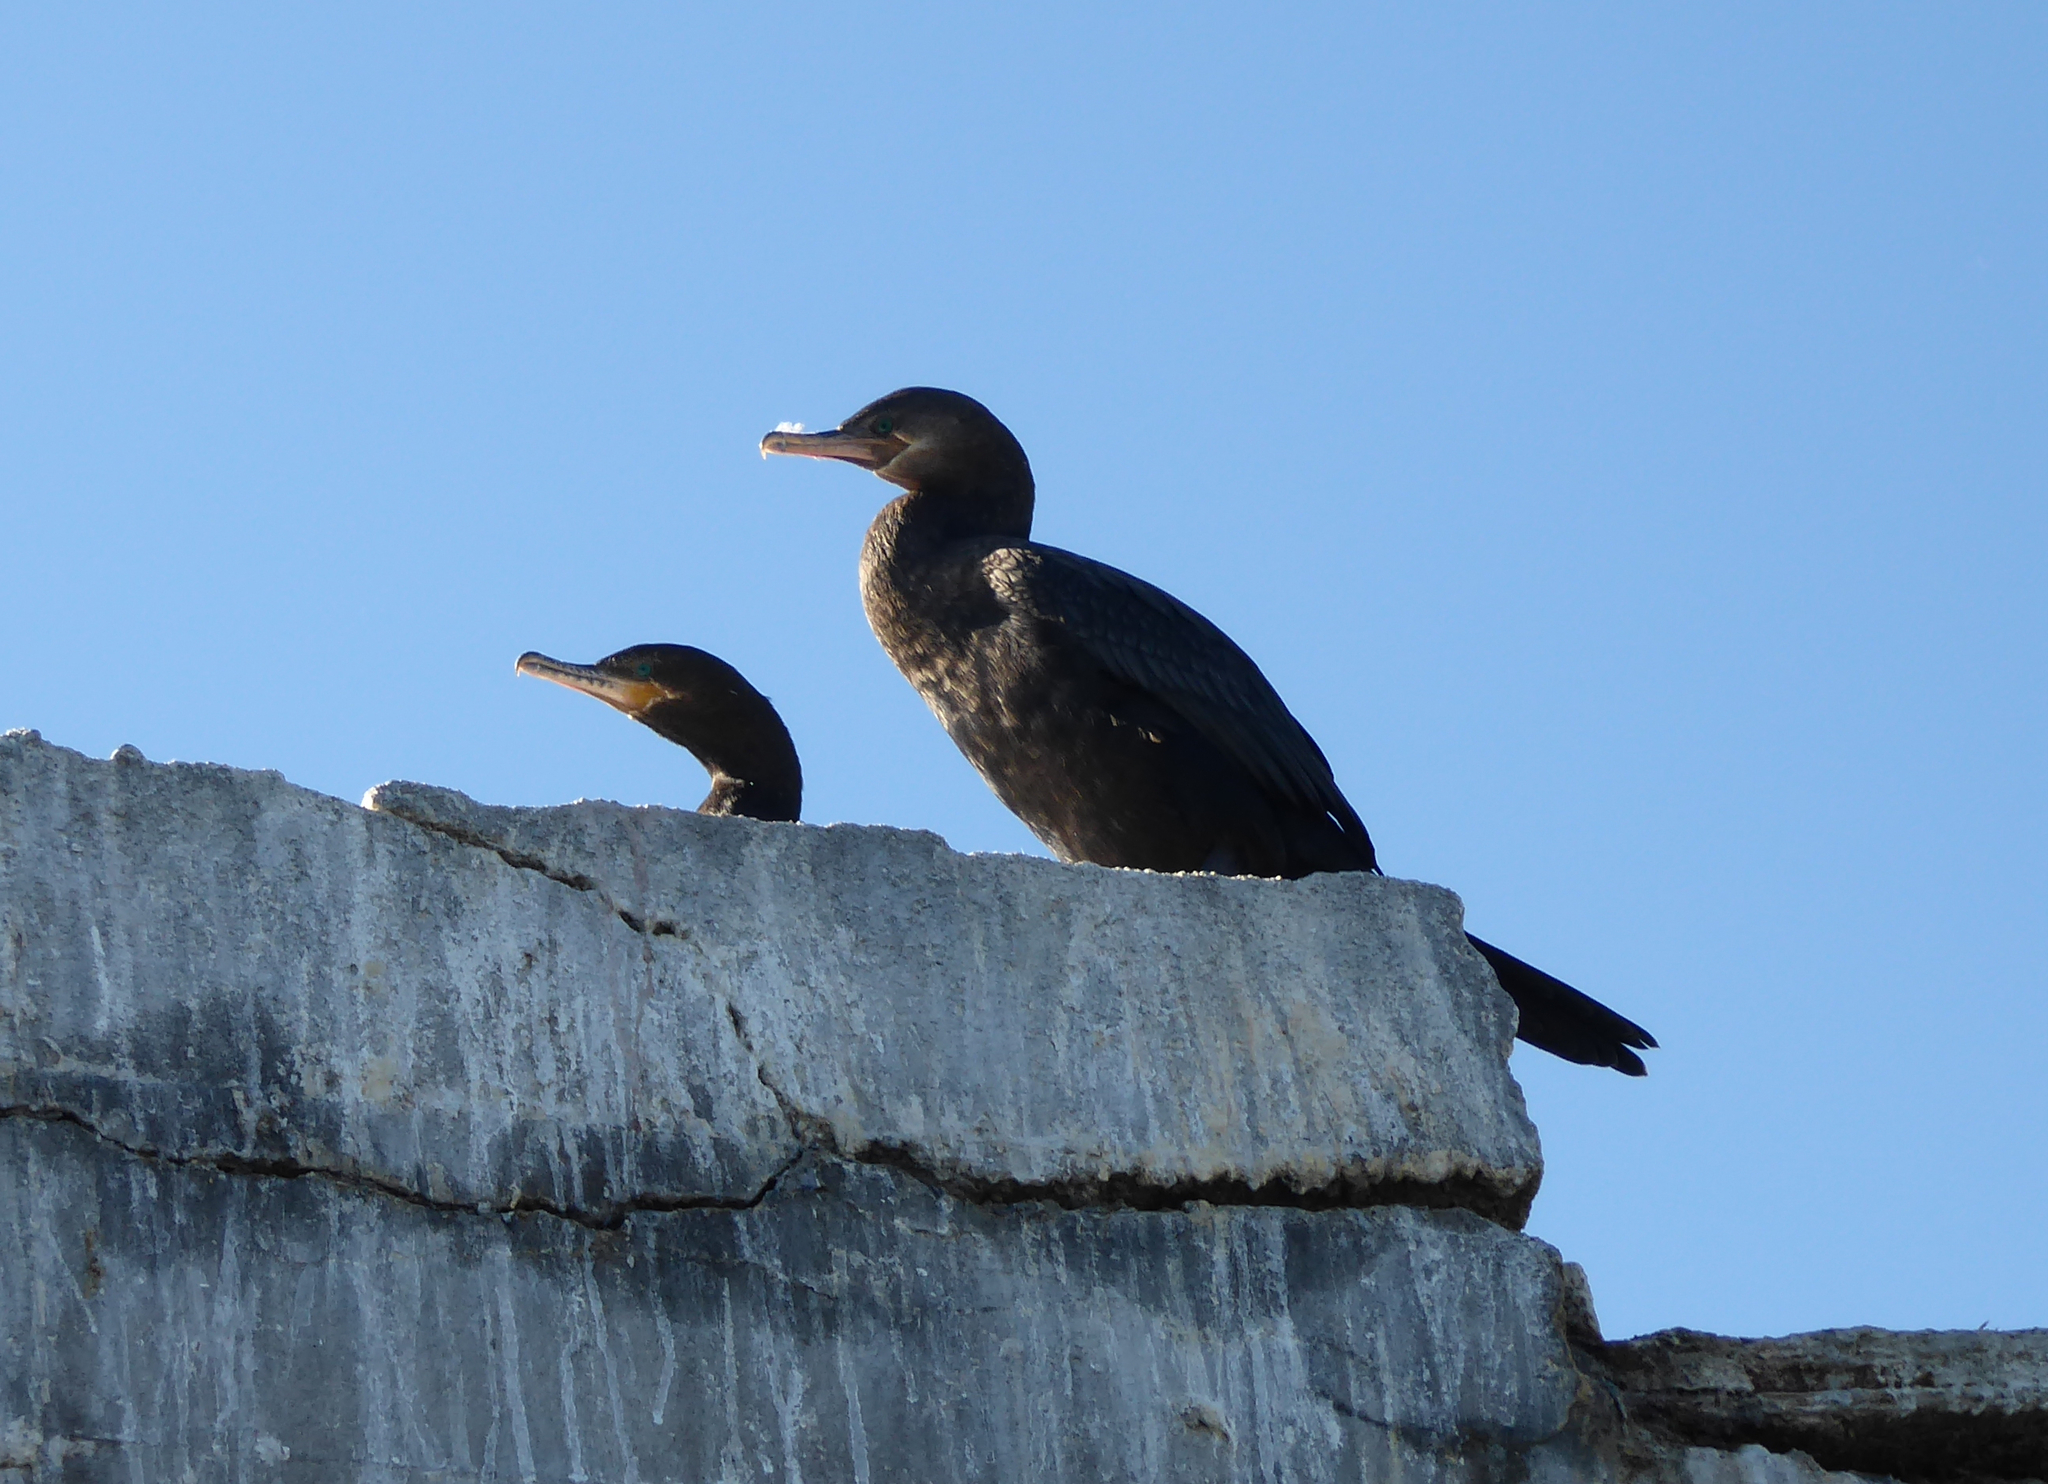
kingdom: Animalia
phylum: Chordata
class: Aves
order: Suliformes
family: Phalacrocoracidae
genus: Phalacrocorax
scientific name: Phalacrocorax brasilianus
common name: Neotropic cormorant
